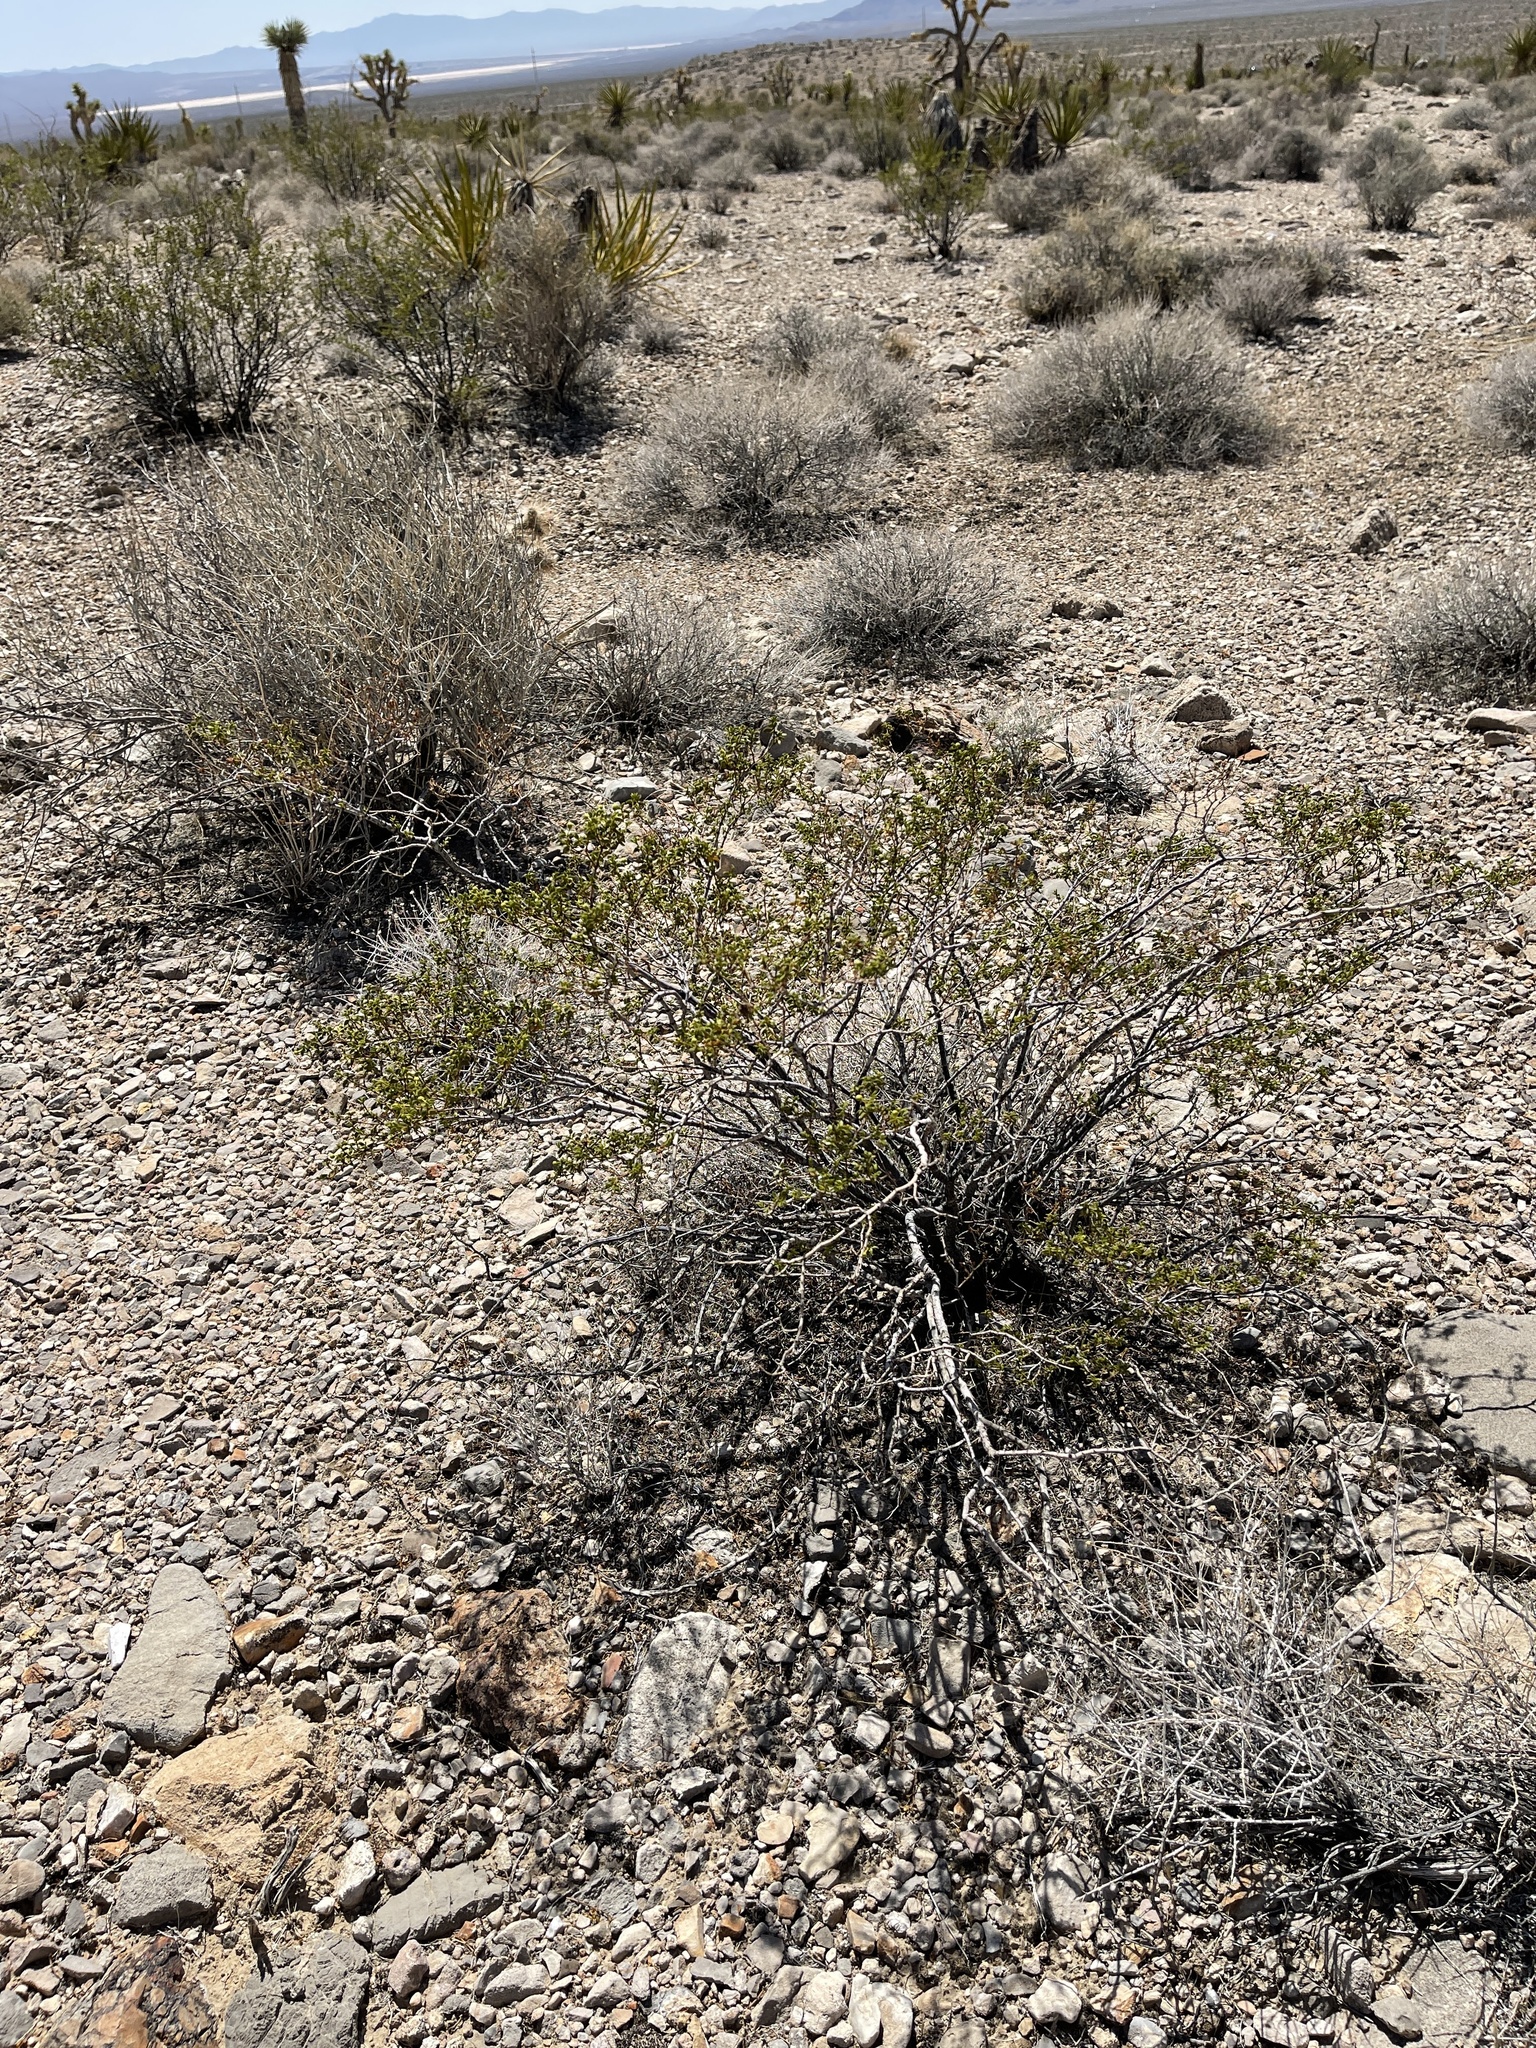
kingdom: Plantae
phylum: Tracheophyta
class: Magnoliopsida
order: Zygophyllales
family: Zygophyllaceae
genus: Larrea
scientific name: Larrea tridentata
